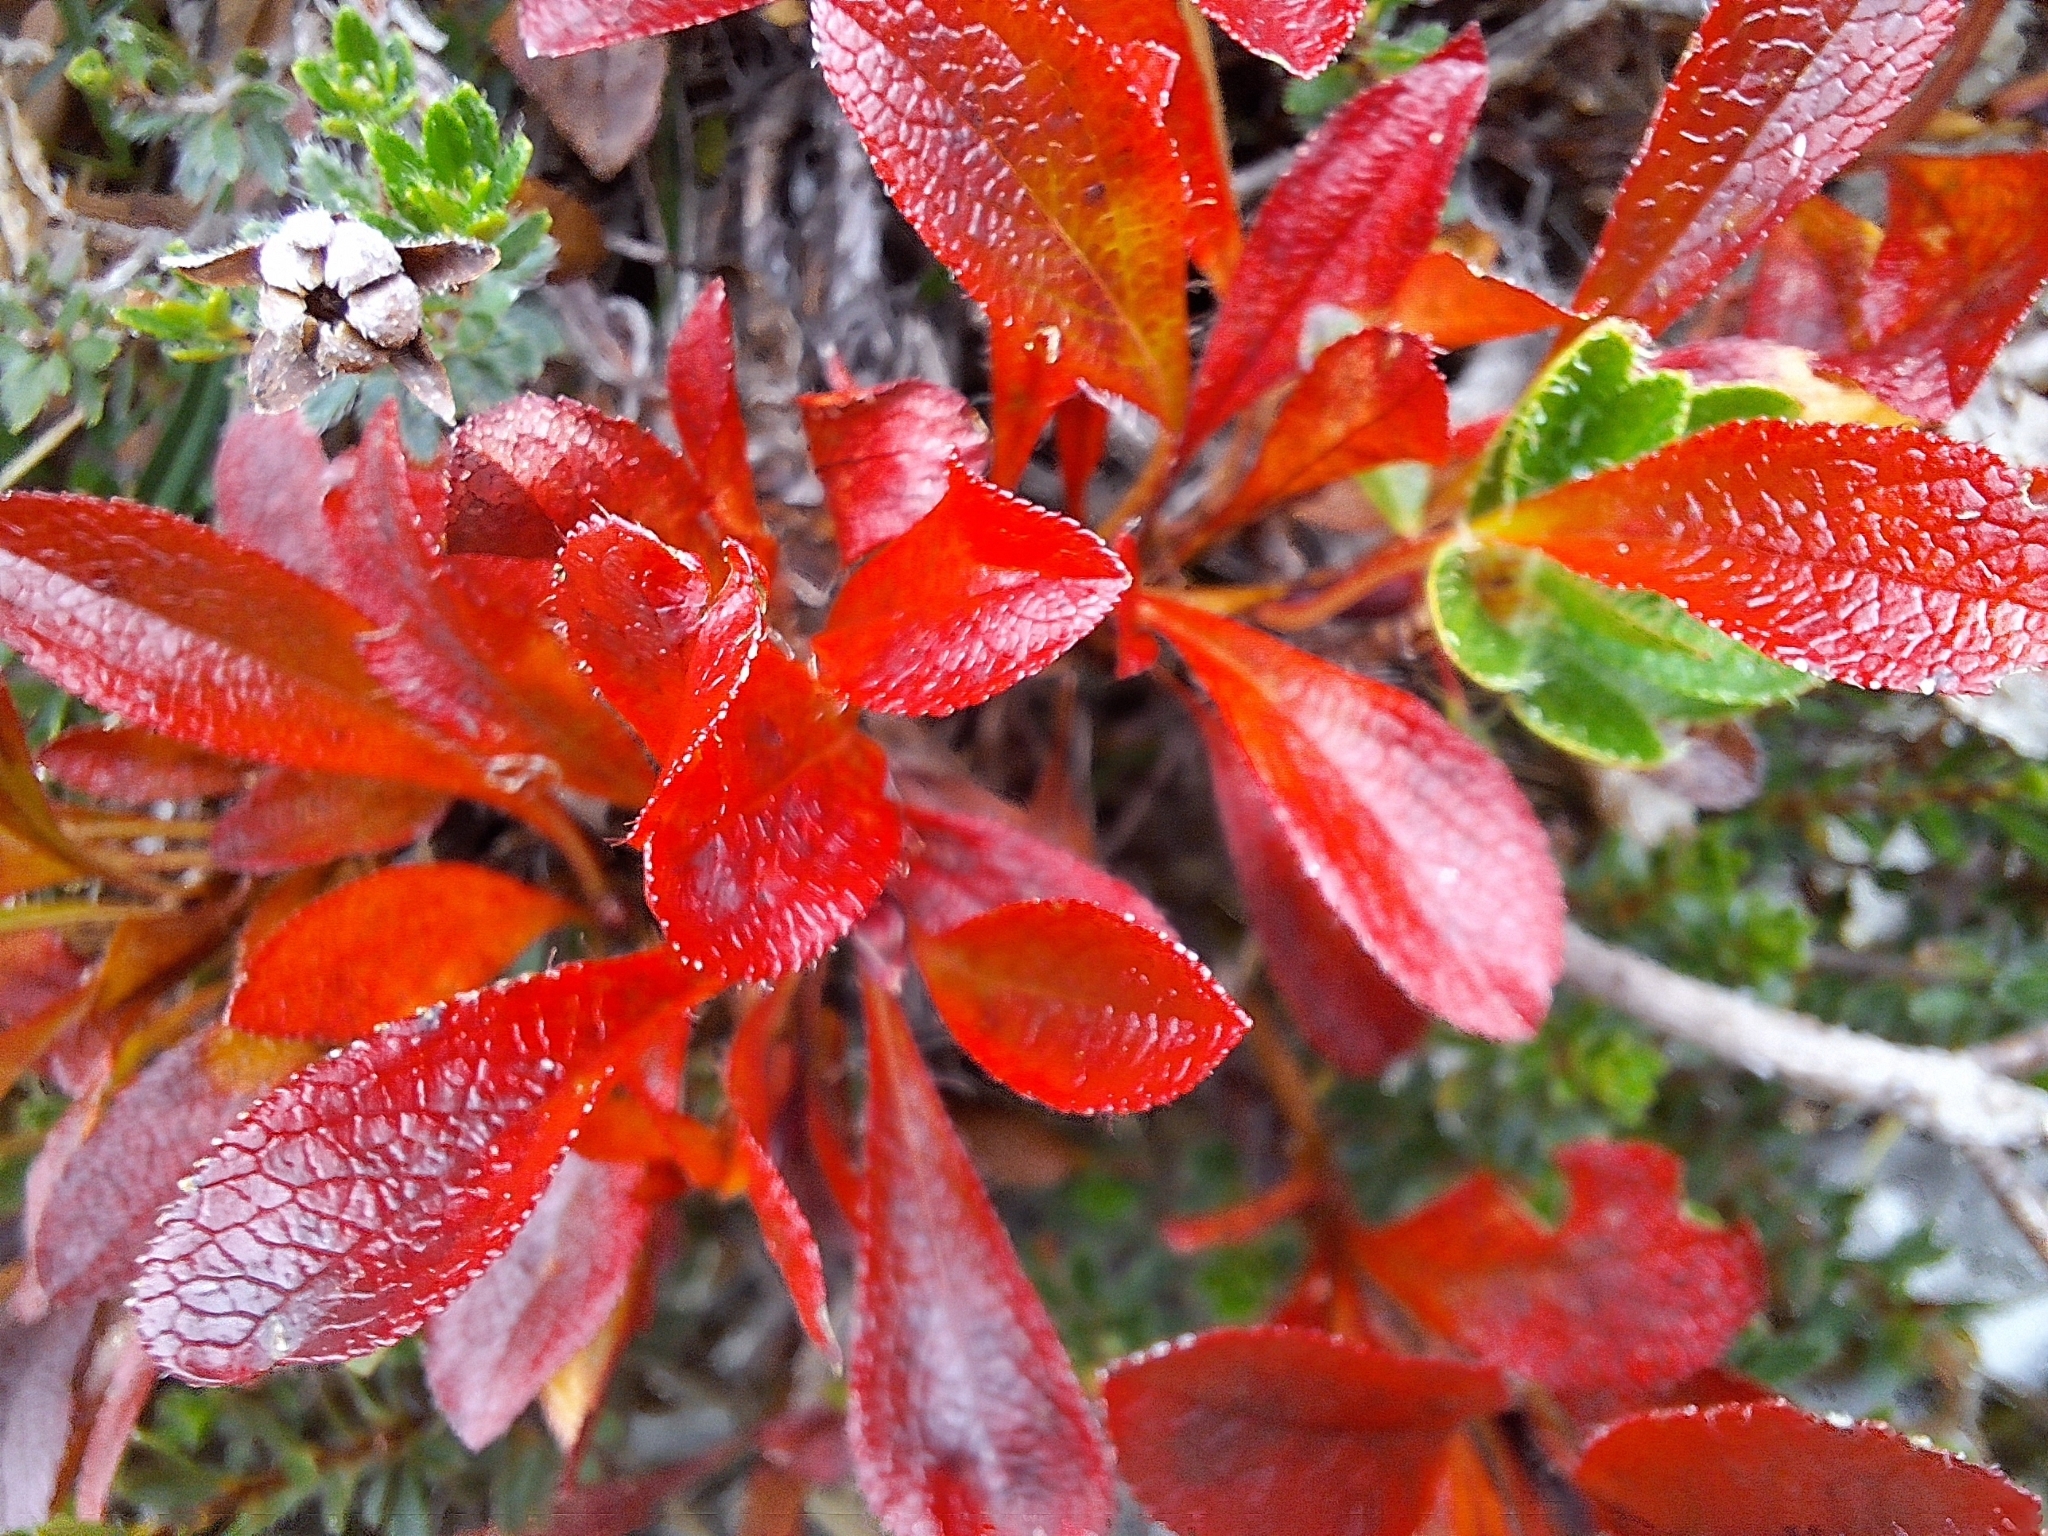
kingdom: Plantae
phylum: Tracheophyta
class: Magnoliopsida
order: Ericales
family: Ericaceae
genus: Arctostaphylos
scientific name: Arctostaphylos alpinus
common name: Alpine bearberry
